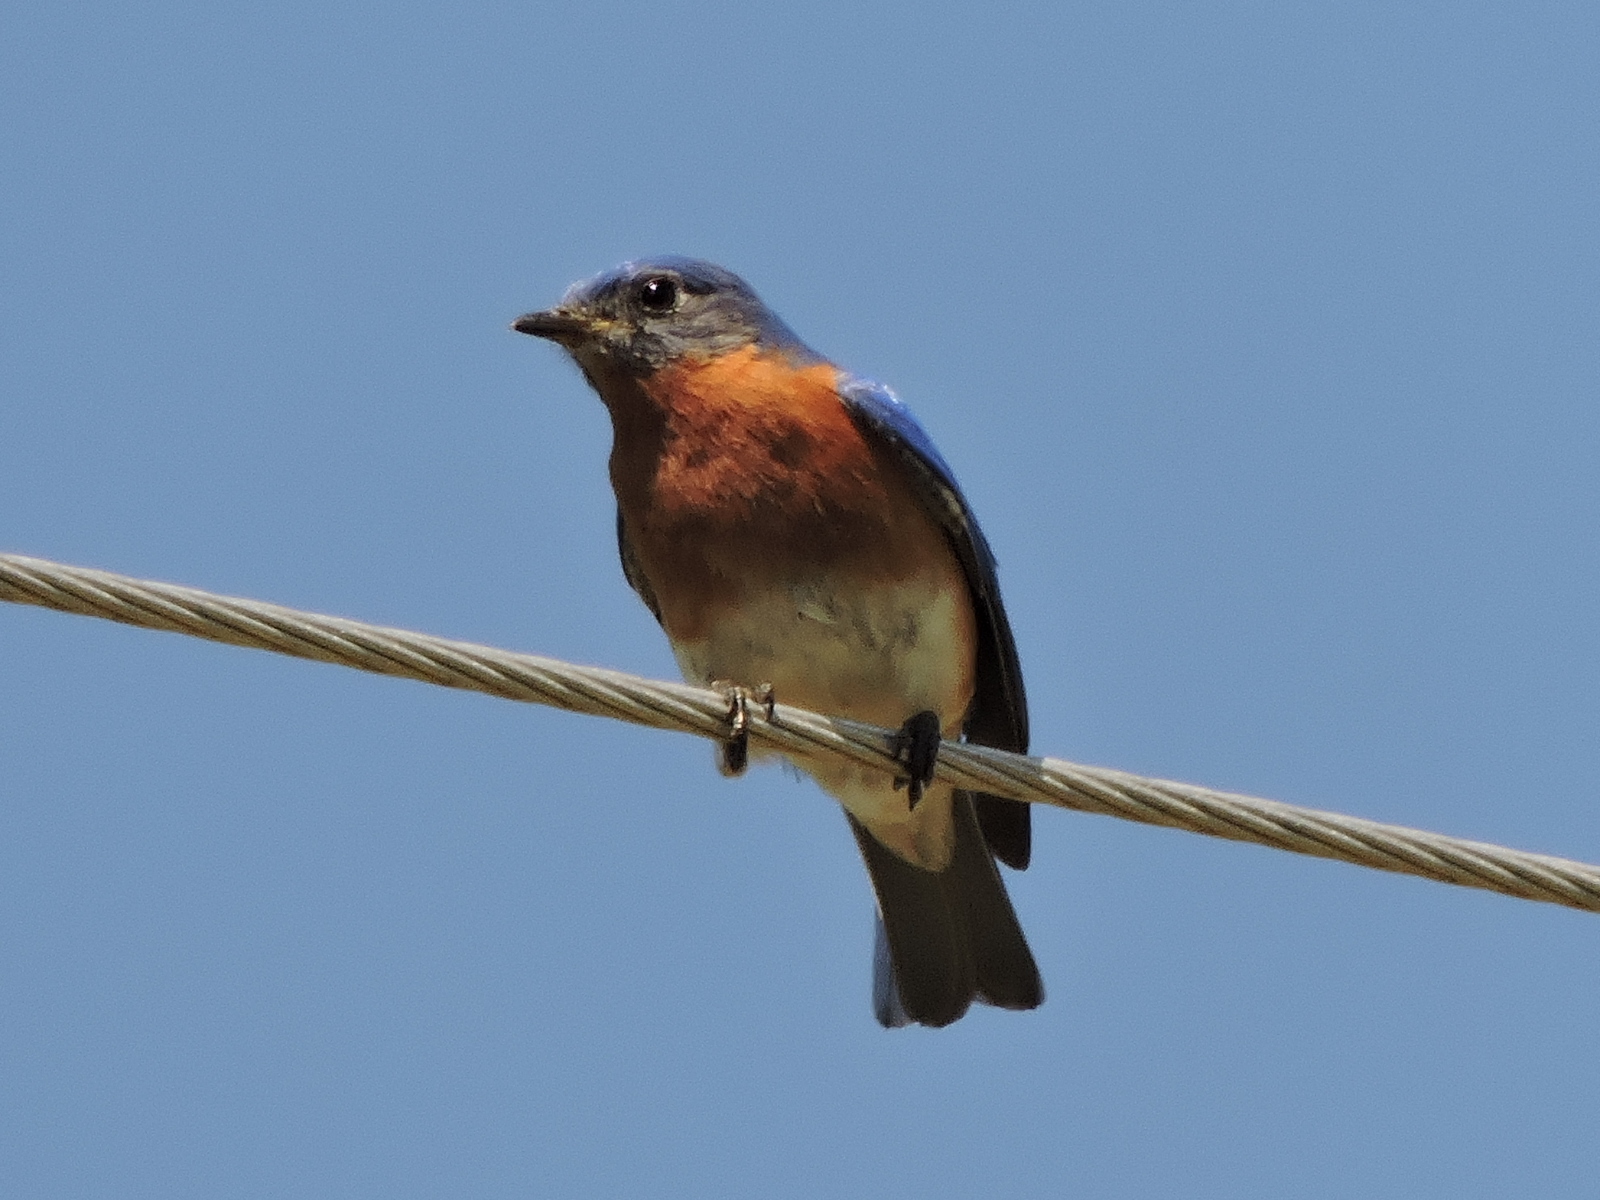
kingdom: Animalia
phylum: Chordata
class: Aves
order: Passeriformes
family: Turdidae
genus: Sialia
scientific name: Sialia sialis
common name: Eastern bluebird
